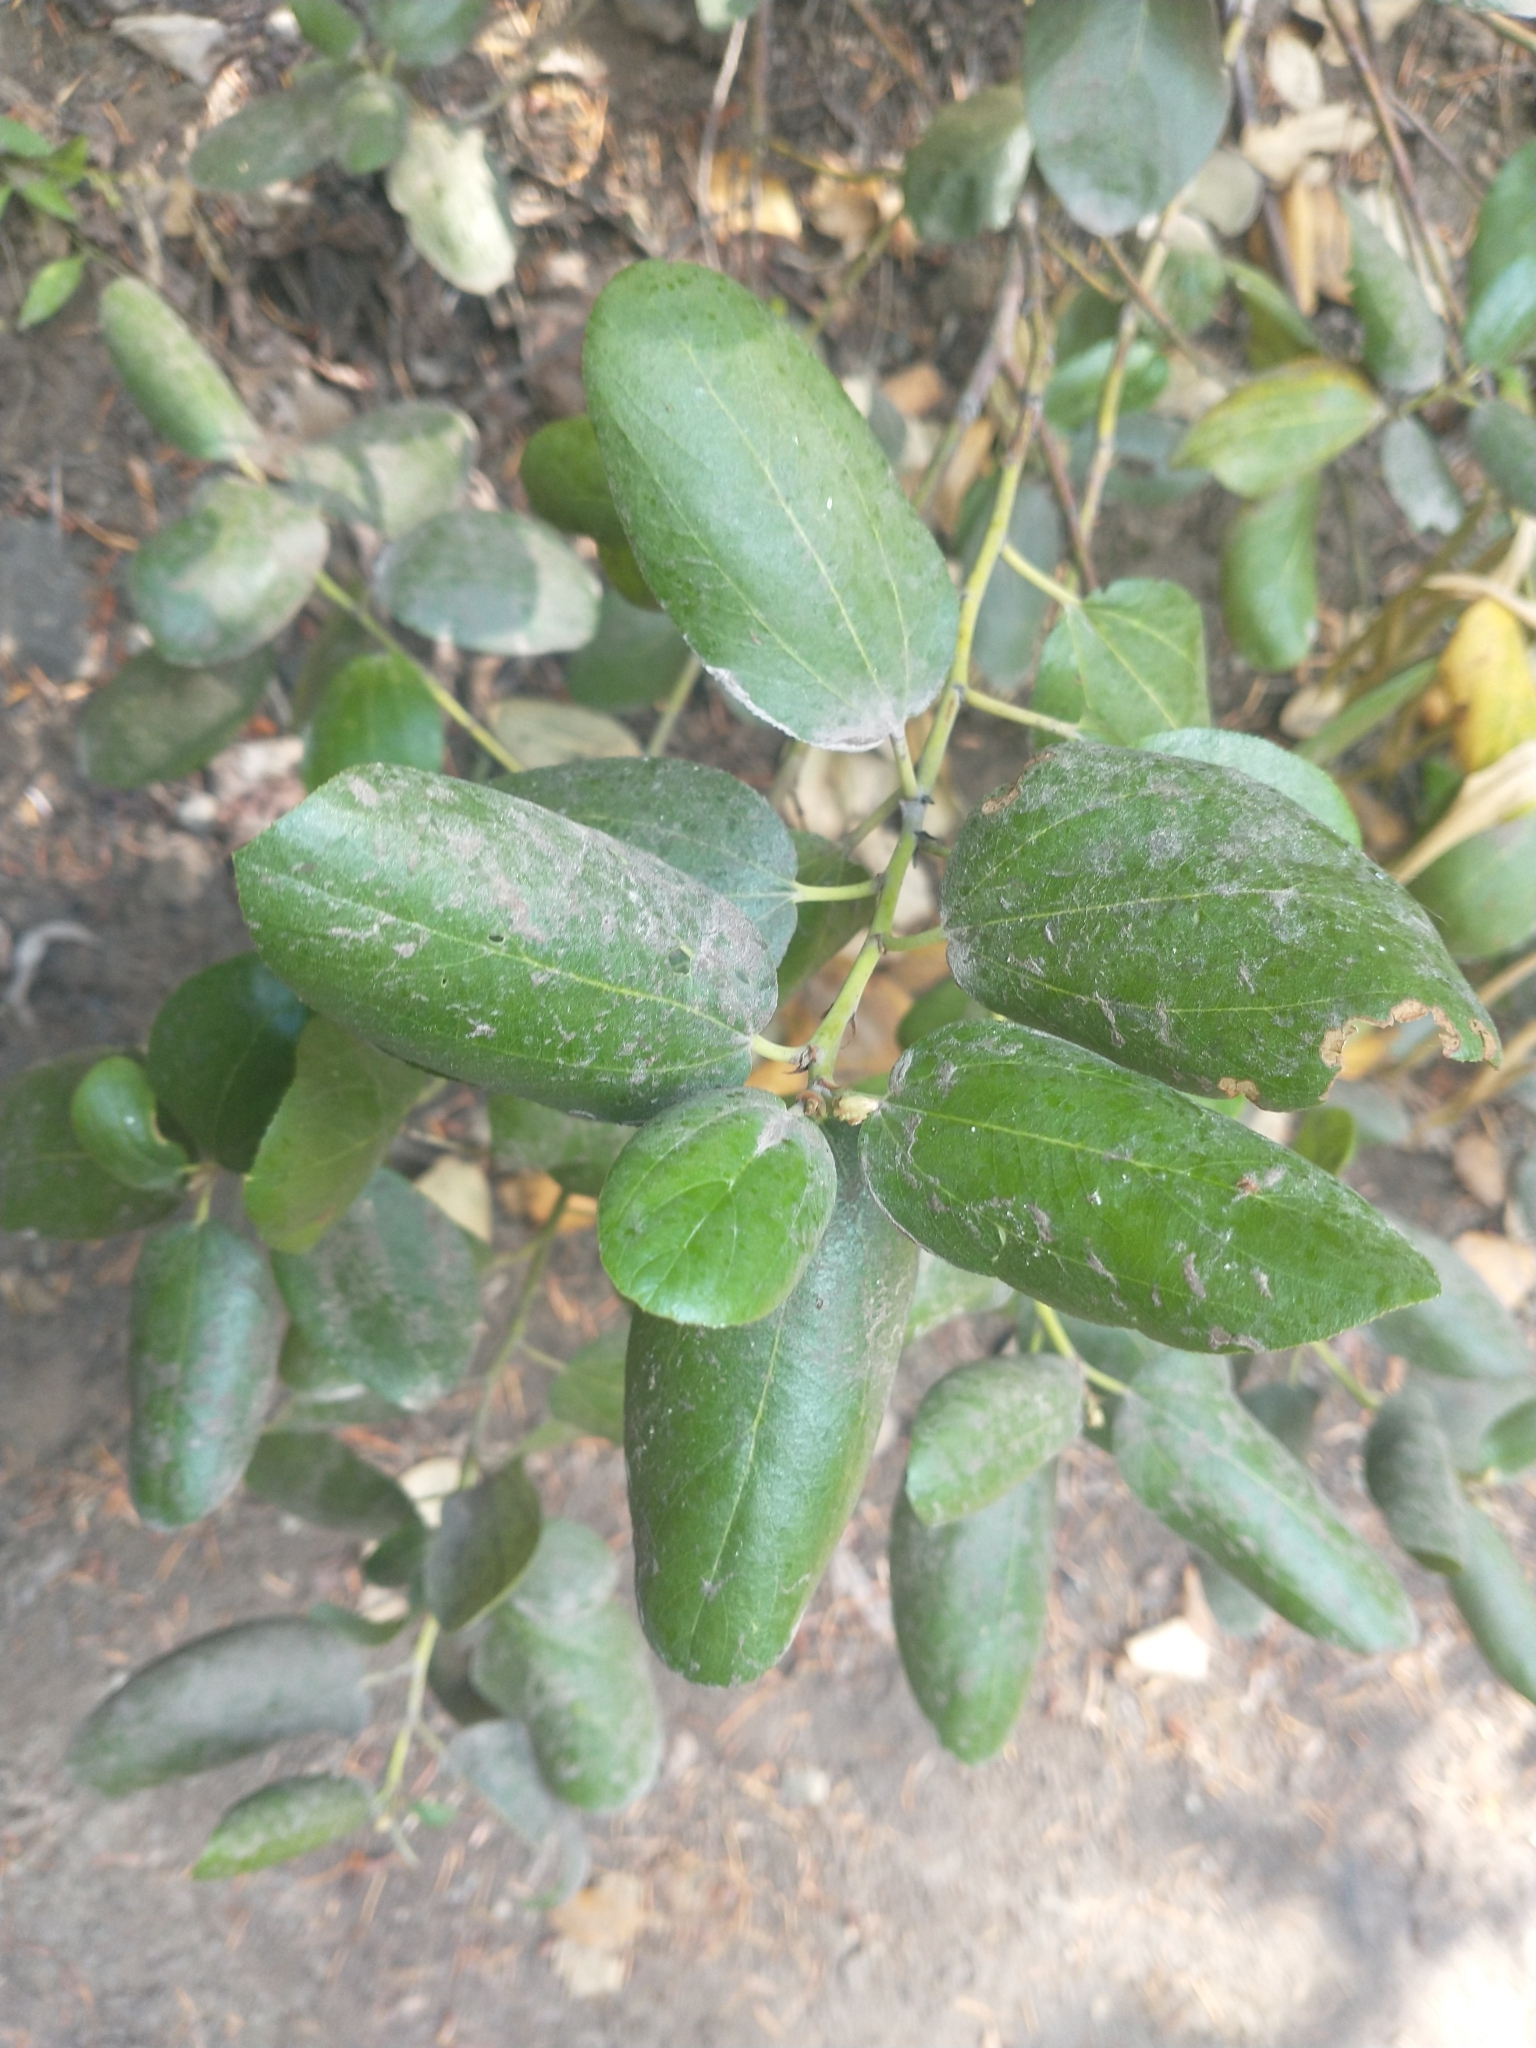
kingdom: Plantae
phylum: Tracheophyta
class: Magnoliopsida
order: Rosales
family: Rhamnaceae
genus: Ceanothus
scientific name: Ceanothus velutinus
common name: Snowbrush
